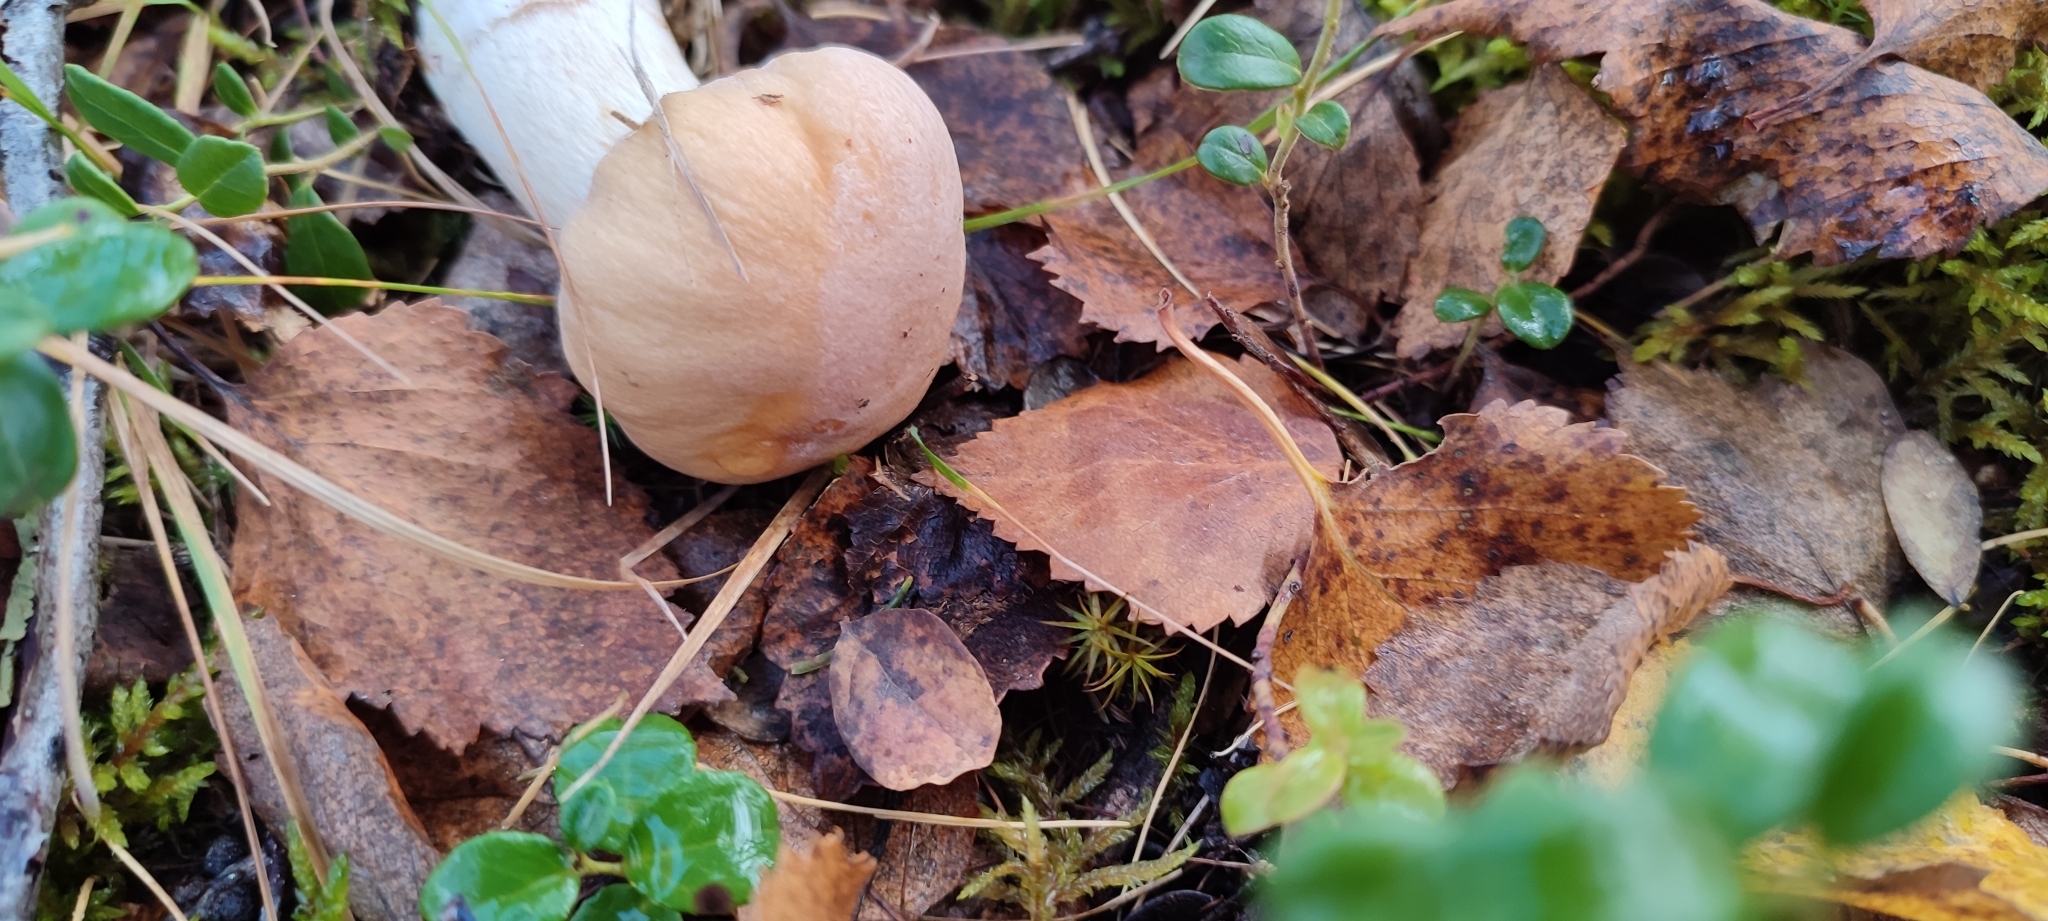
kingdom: Fungi
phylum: Basidiomycota
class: Agaricomycetes
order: Agaricales
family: Cortinariaceae
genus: Cortinarius
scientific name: Cortinarius caperatus
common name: The gypsy
